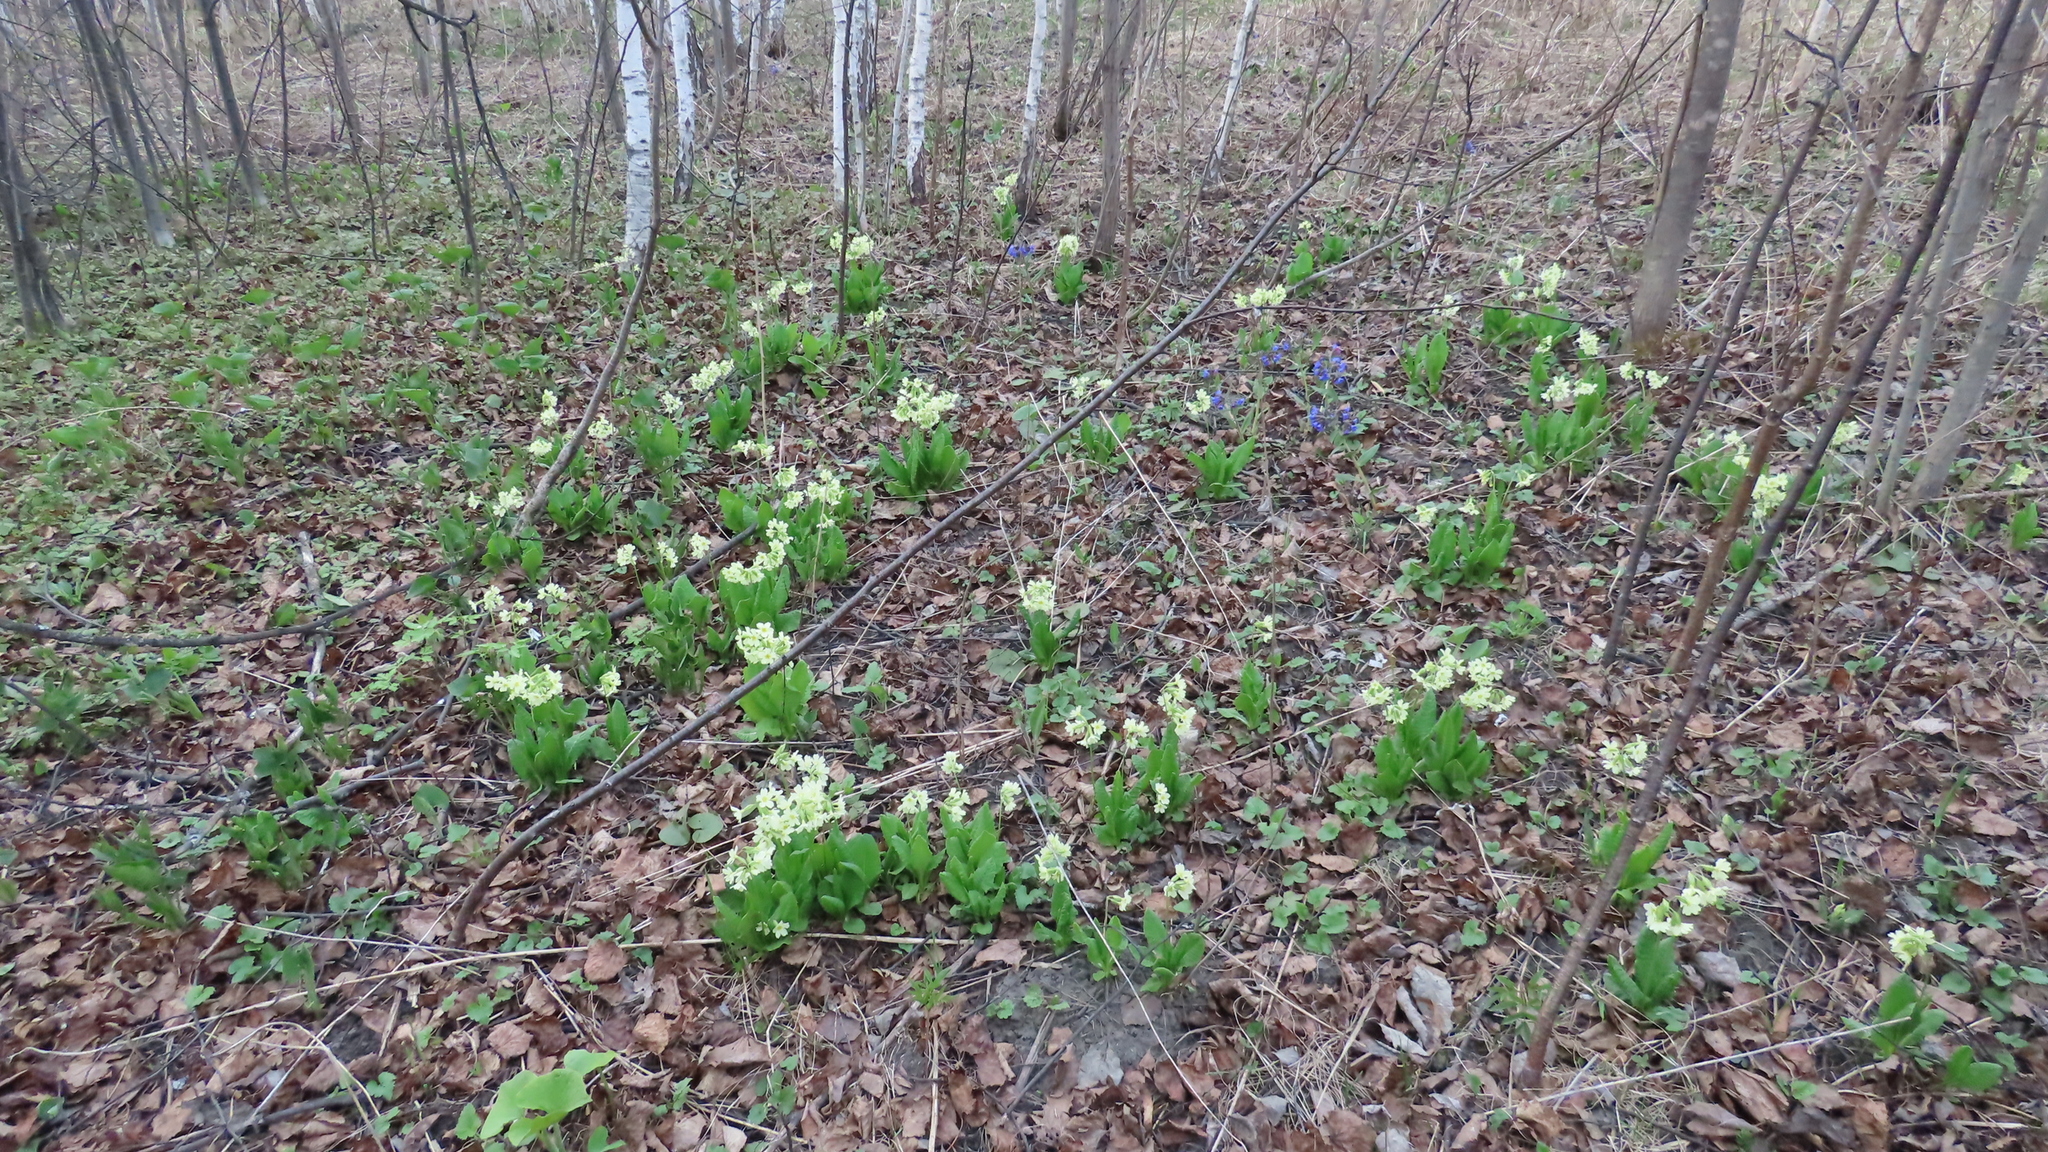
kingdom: Plantae
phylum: Tracheophyta
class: Magnoliopsida
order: Ericales
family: Primulaceae
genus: Primula
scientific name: Primula elatior
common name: Oxlip
